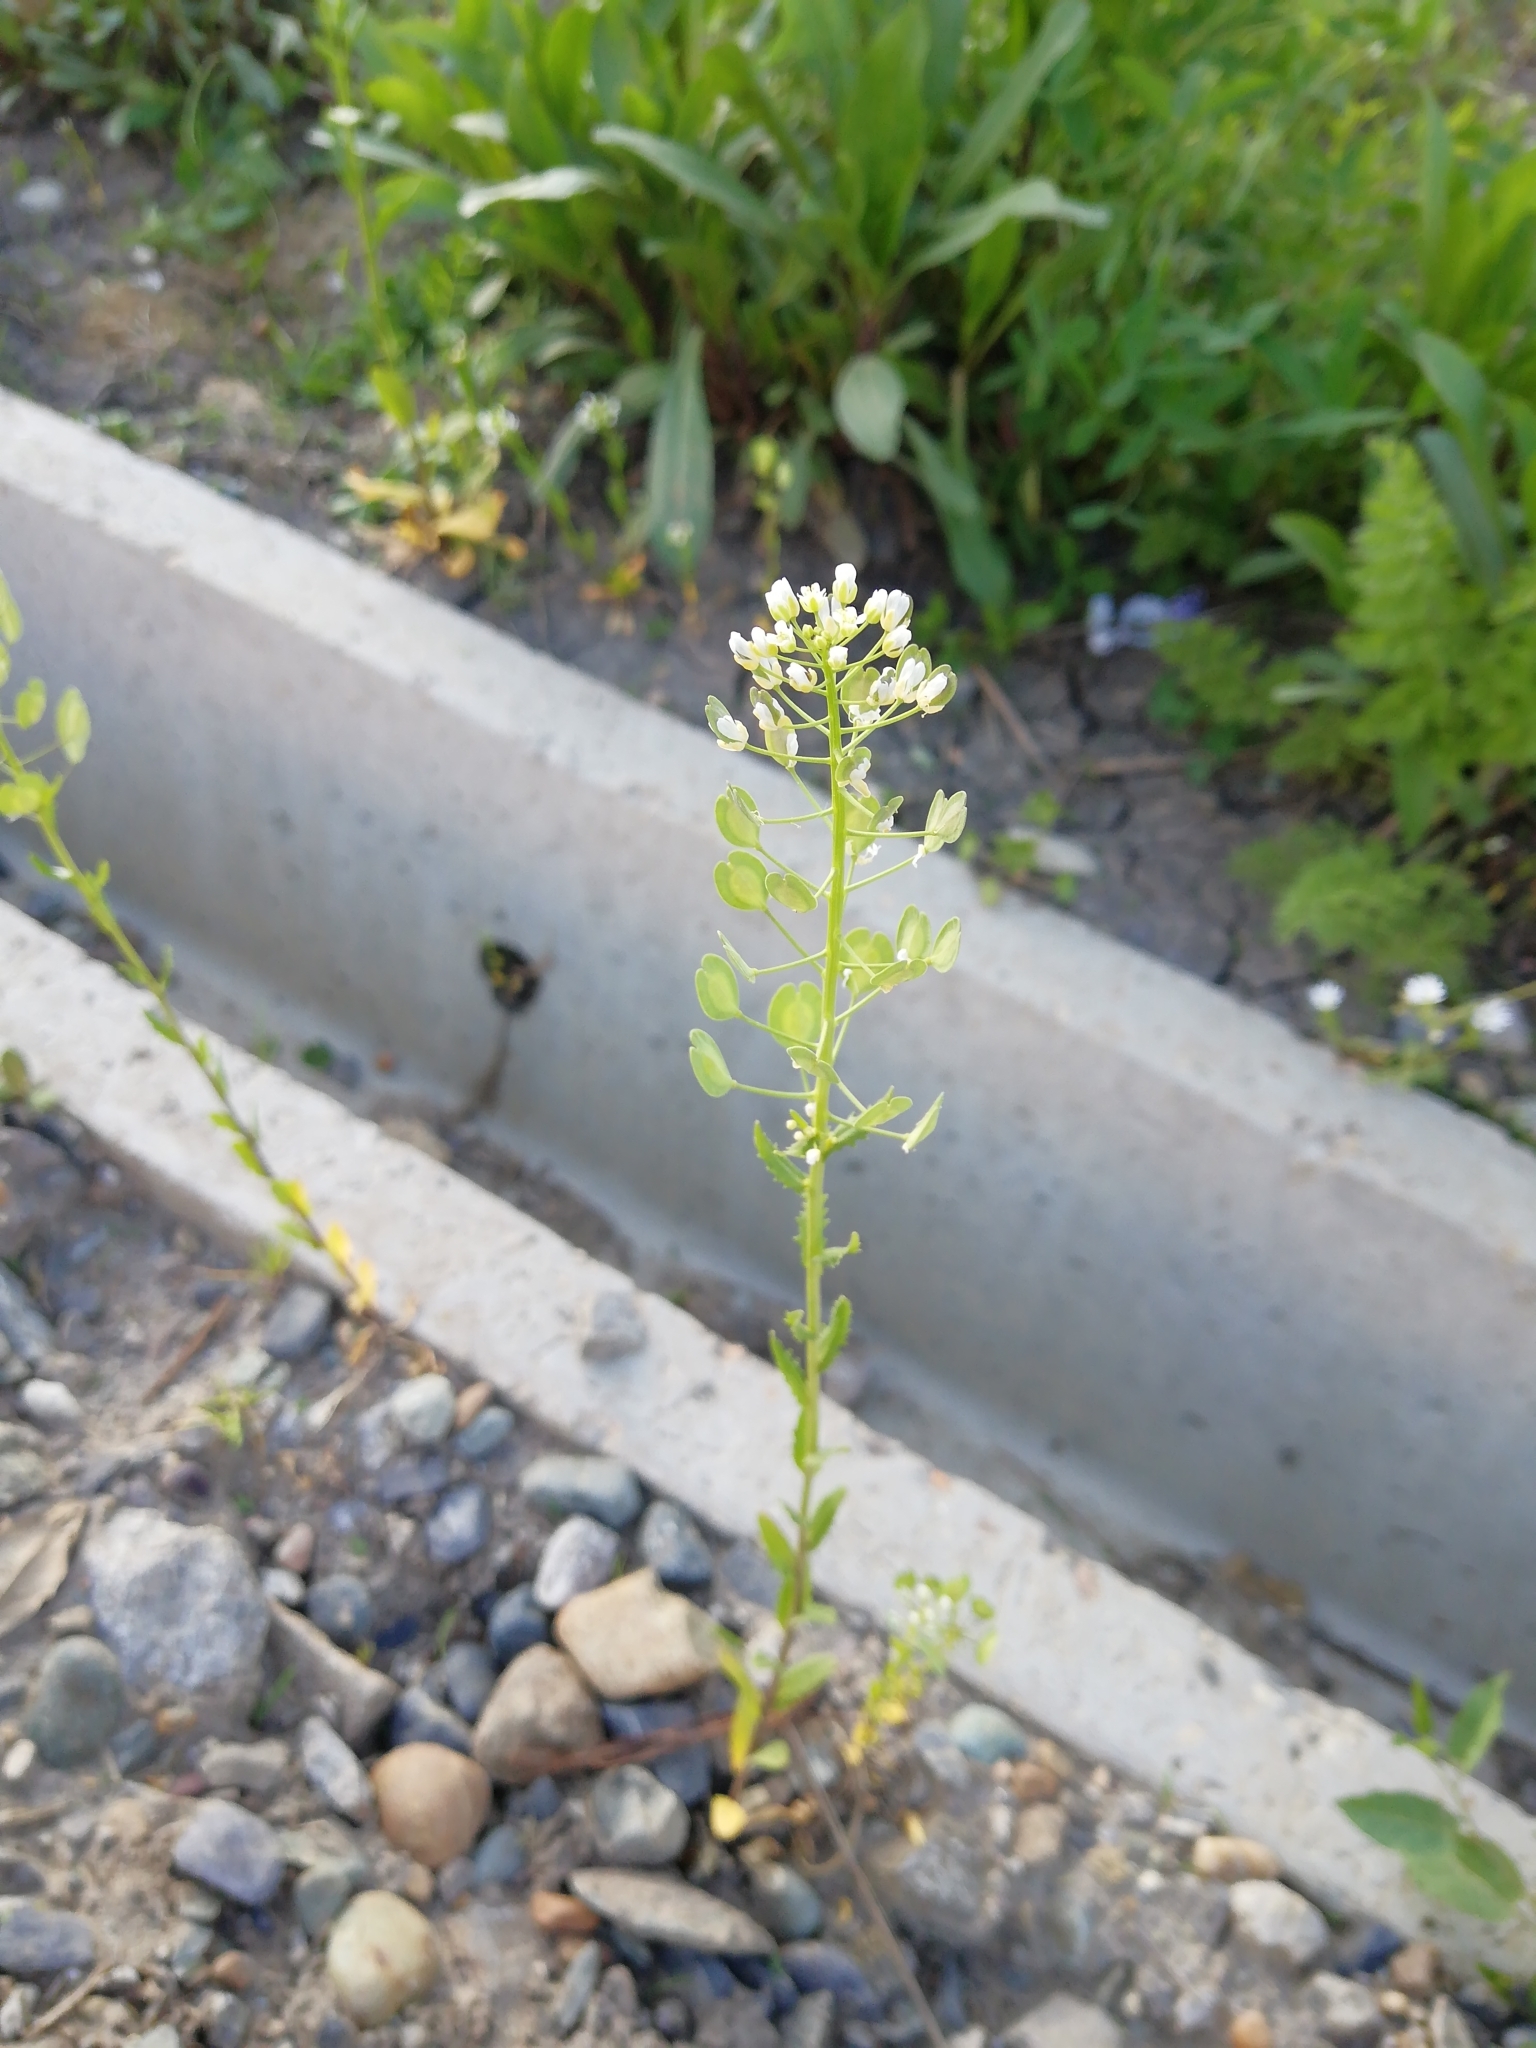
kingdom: Plantae
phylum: Tracheophyta
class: Magnoliopsida
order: Brassicales
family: Brassicaceae
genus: Thlaspi
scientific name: Thlaspi arvense
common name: Field pennycress
